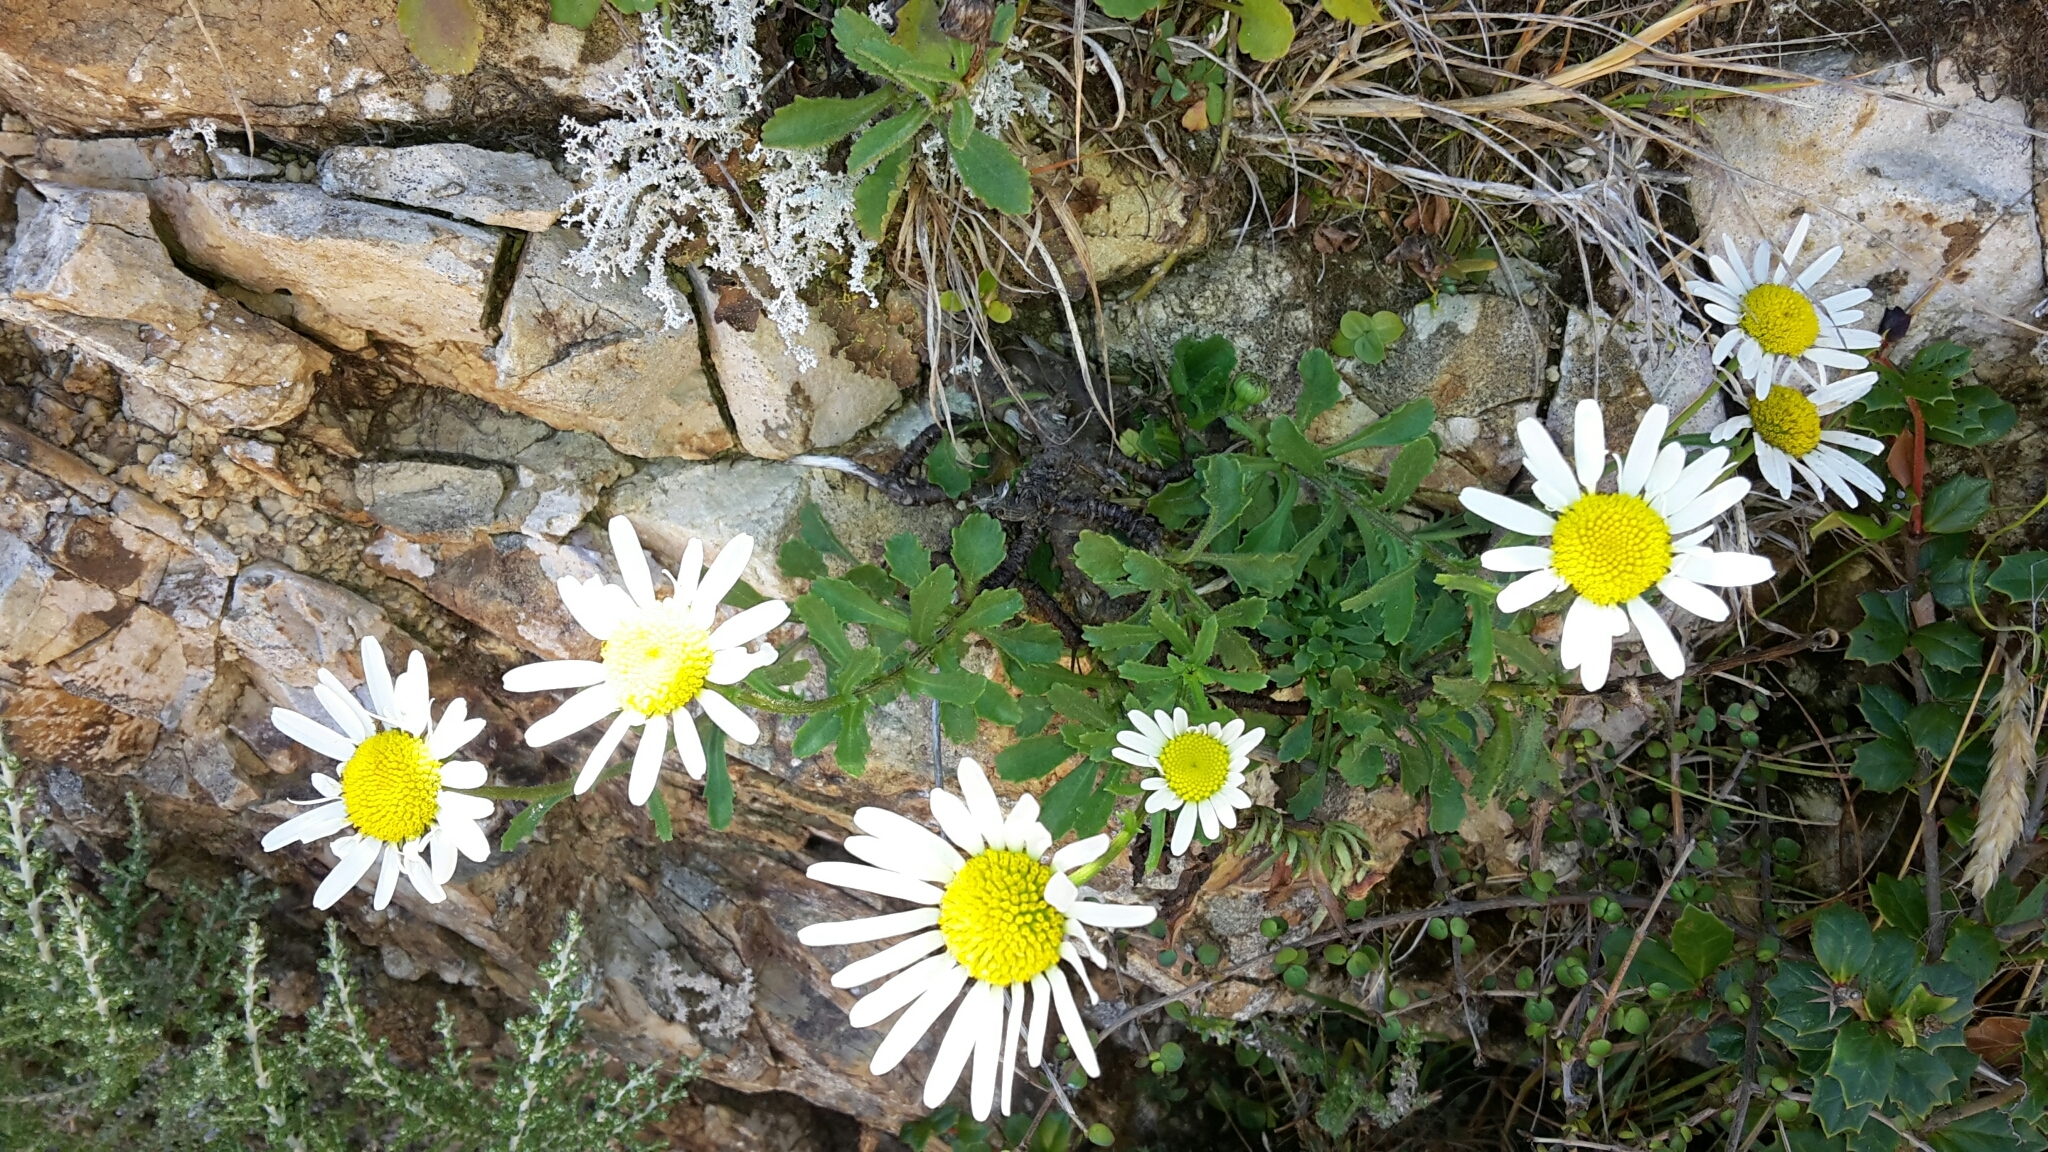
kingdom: Plantae
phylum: Tracheophyta
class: Magnoliopsida
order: Asterales
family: Asteraceae
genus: Leucanthemum
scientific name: Leucanthemum vulgare
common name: Oxeye daisy
